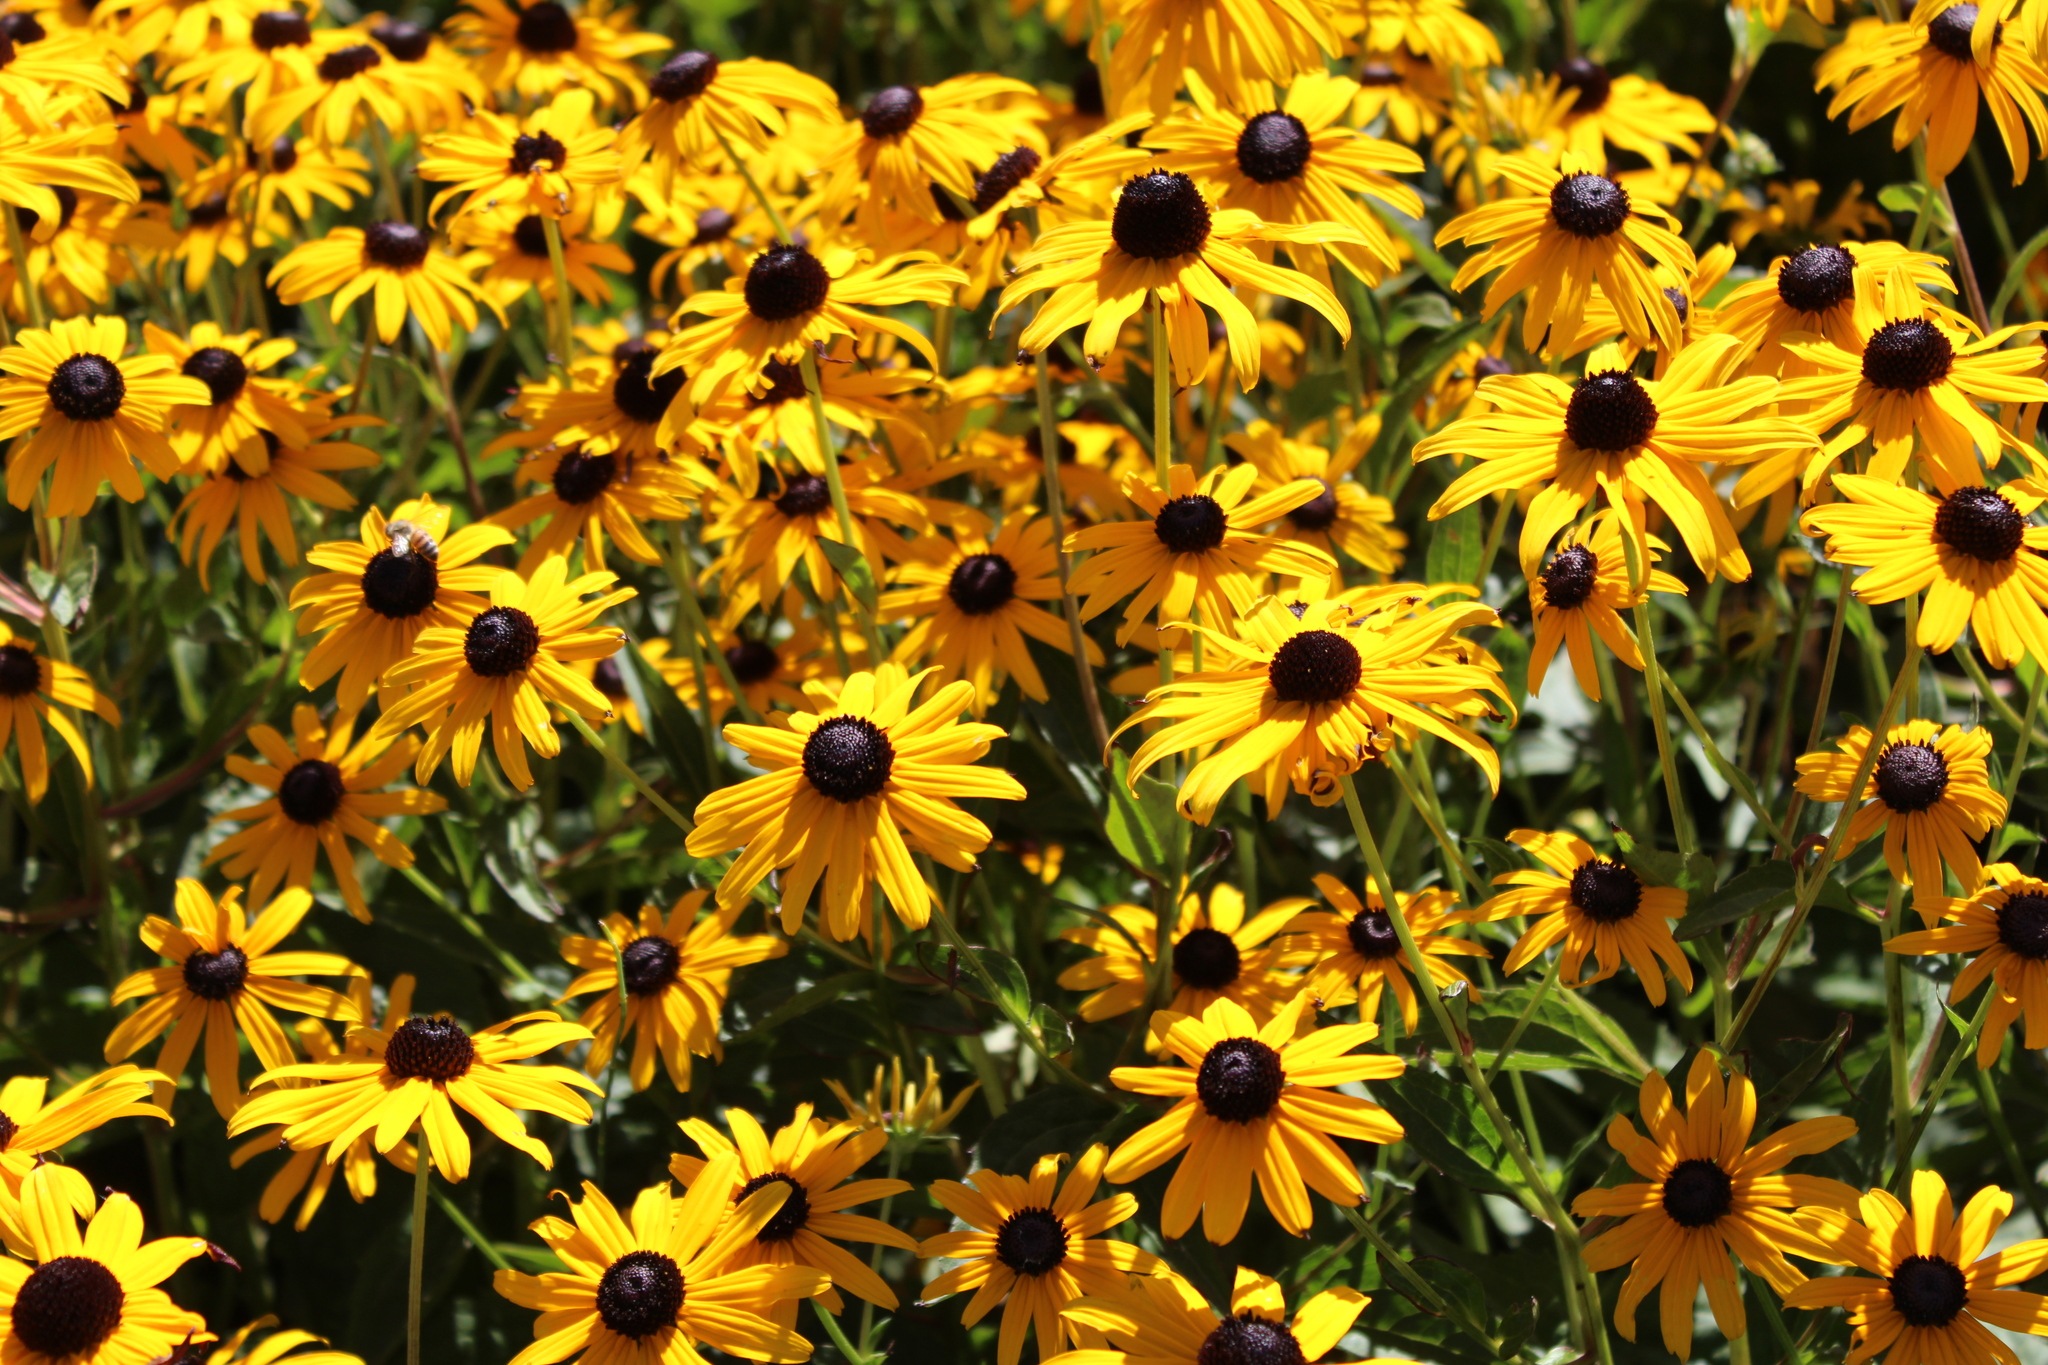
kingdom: Plantae
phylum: Tracheophyta
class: Magnoliopsida
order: Asterales
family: Asteraceae
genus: Rudbeckia
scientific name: Rudbeckia hirta
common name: Black-eyed-susan
